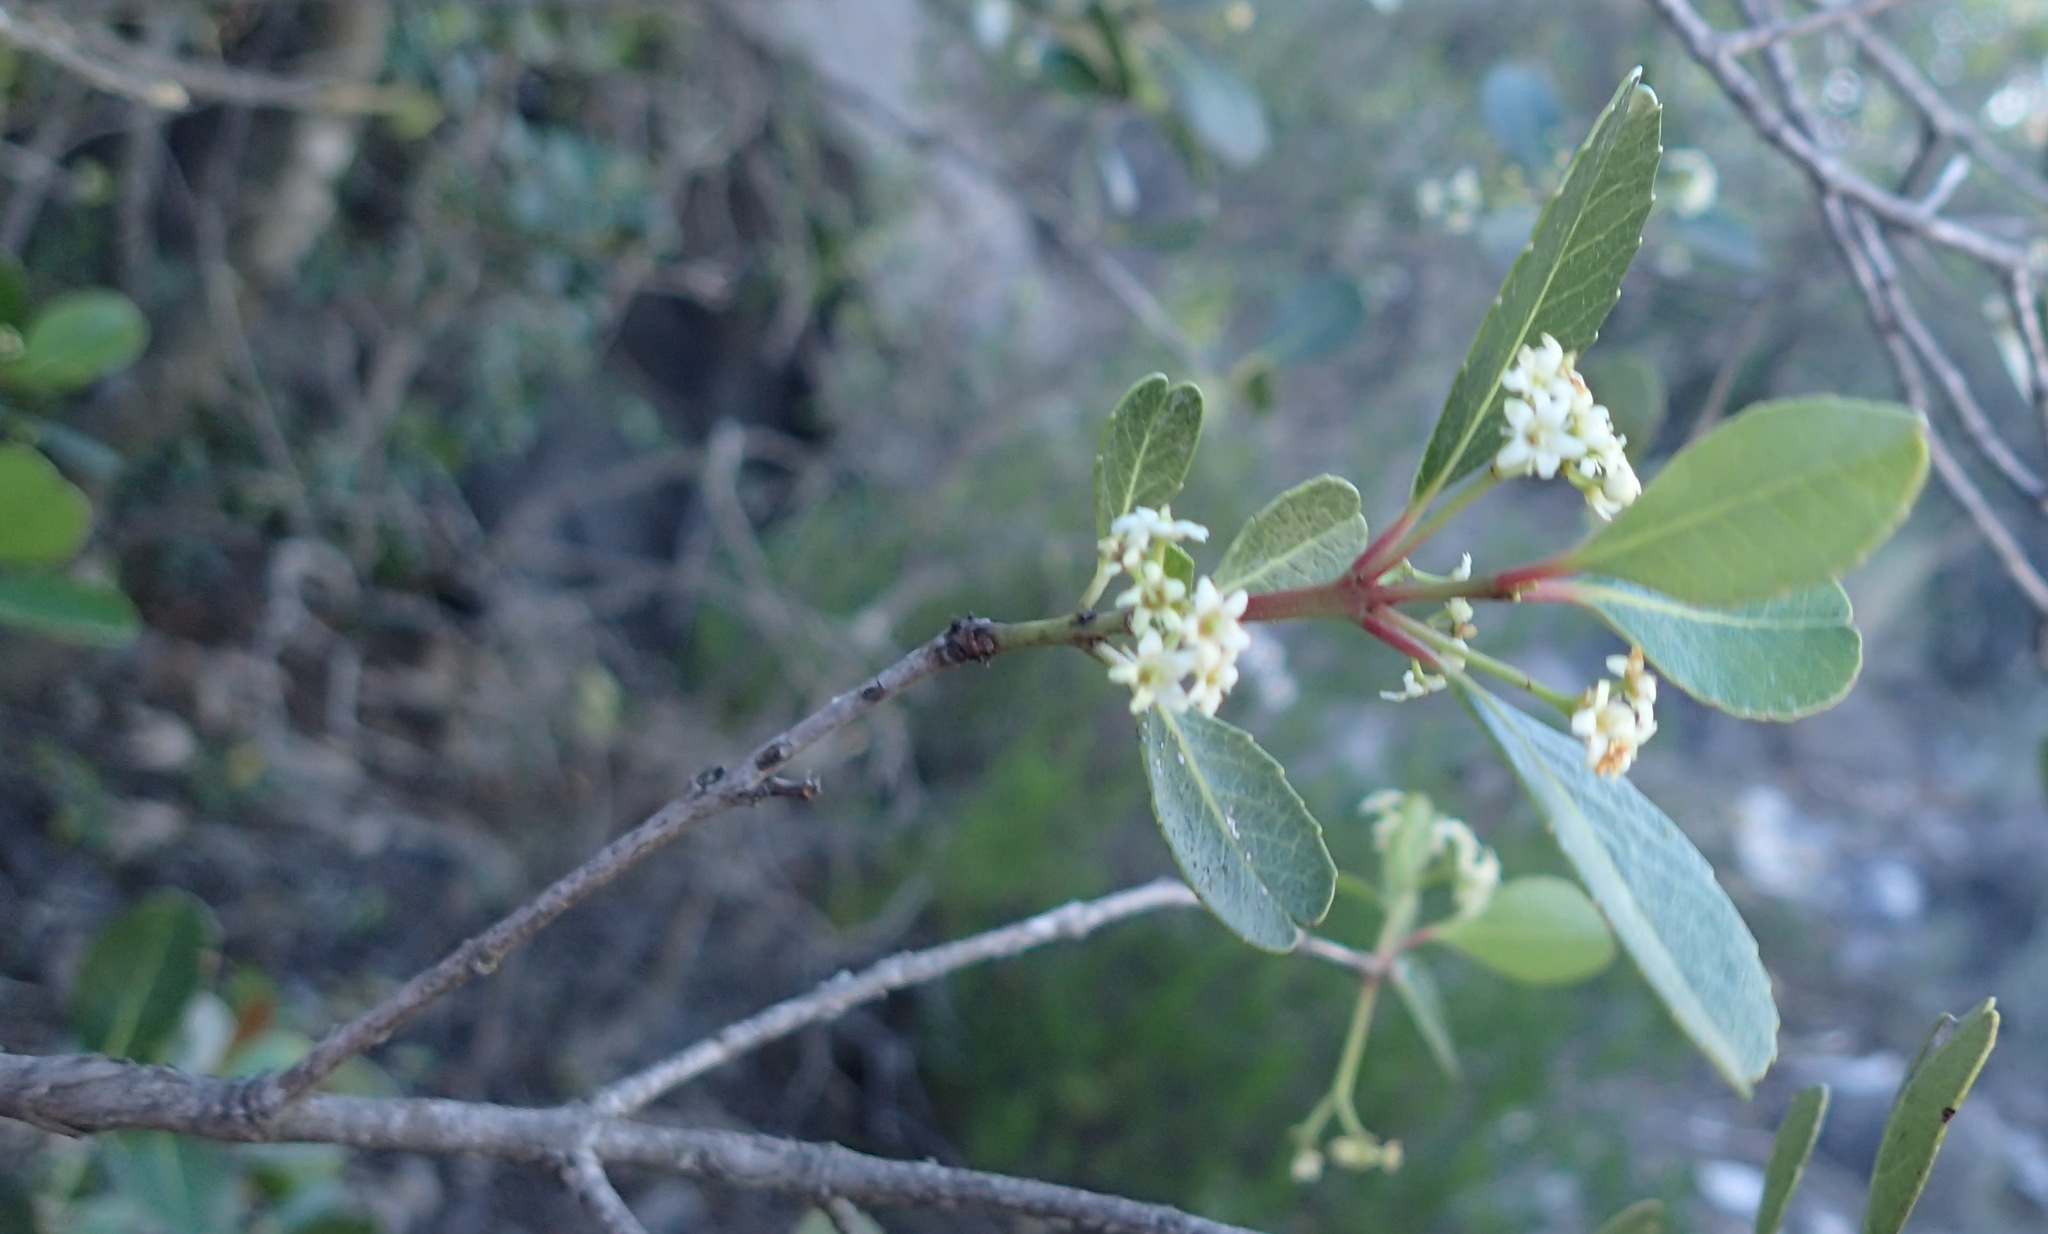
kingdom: Plantae
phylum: Tracheophyta
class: Magnoliopsida
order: Celastrales
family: Celastraceae
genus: Cassine
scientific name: Cassine peragua
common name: Cape saffron
